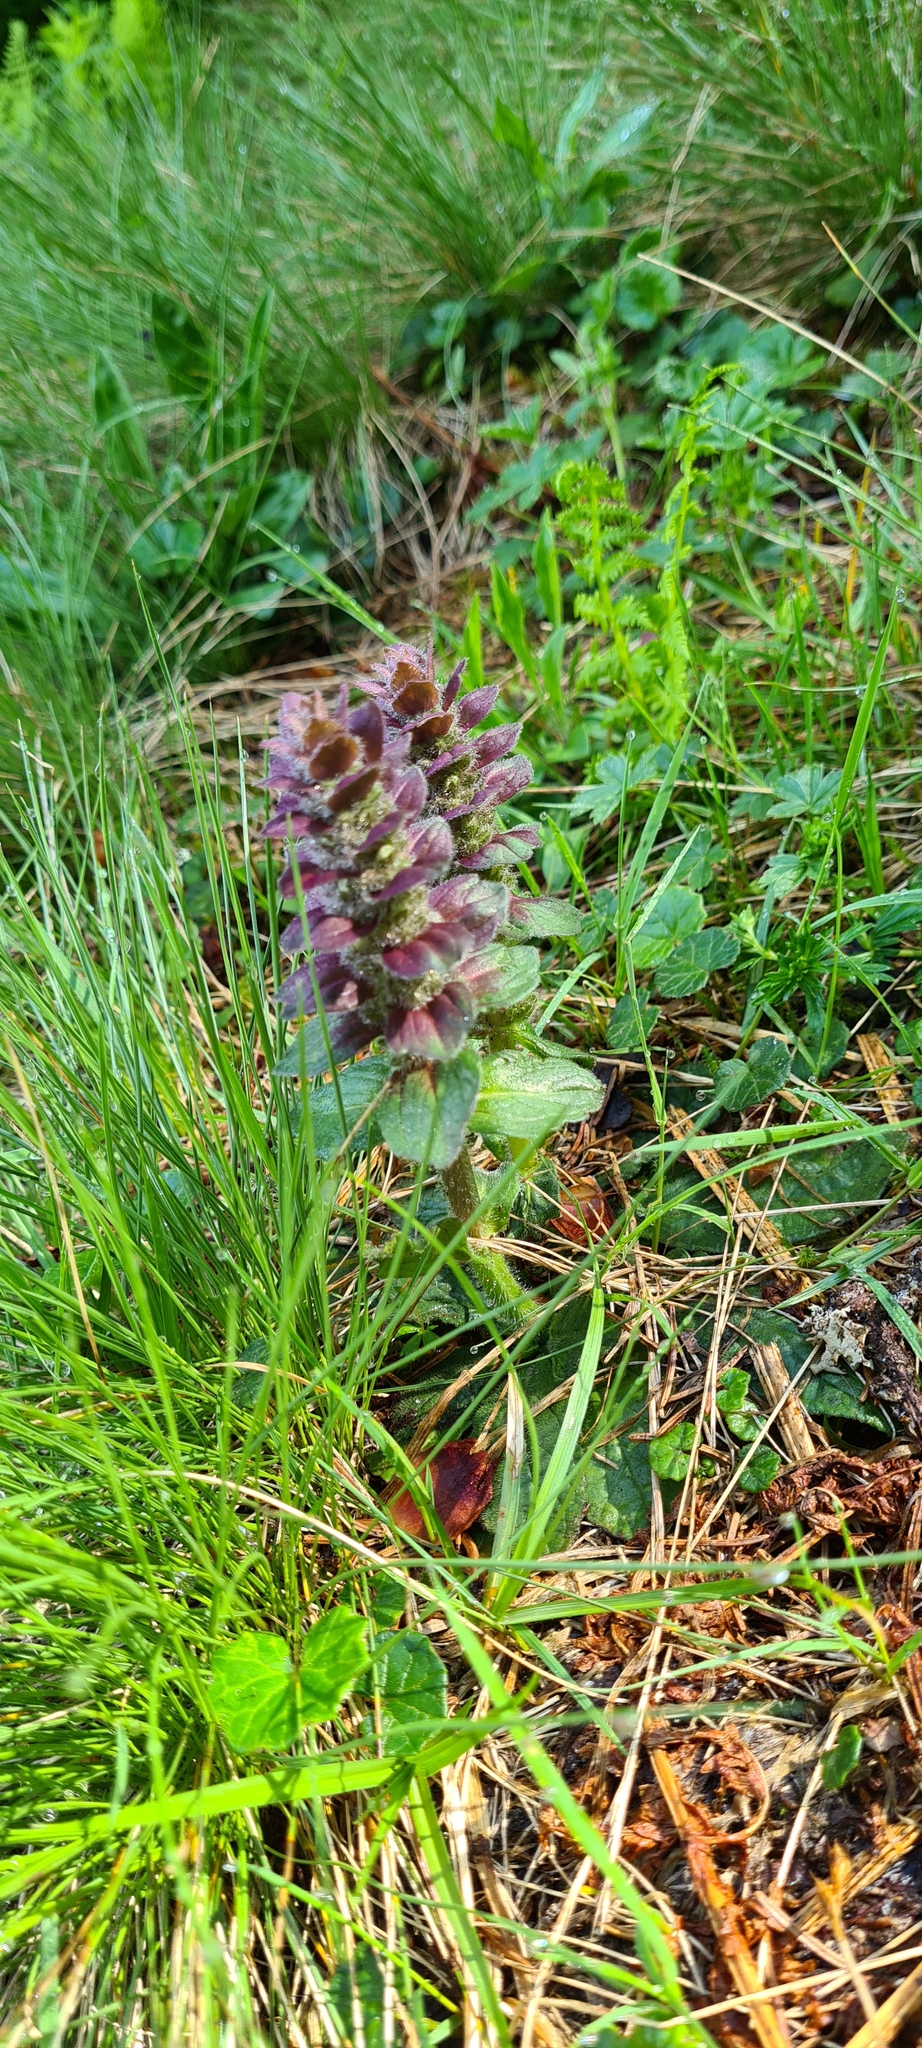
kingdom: Plantae
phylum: Tracheophyta
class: Magnoliopsida
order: Lamiales
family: Lamiaceae
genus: Ajuga
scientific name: Ajuga pyramidalis
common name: Pyramid bugle
